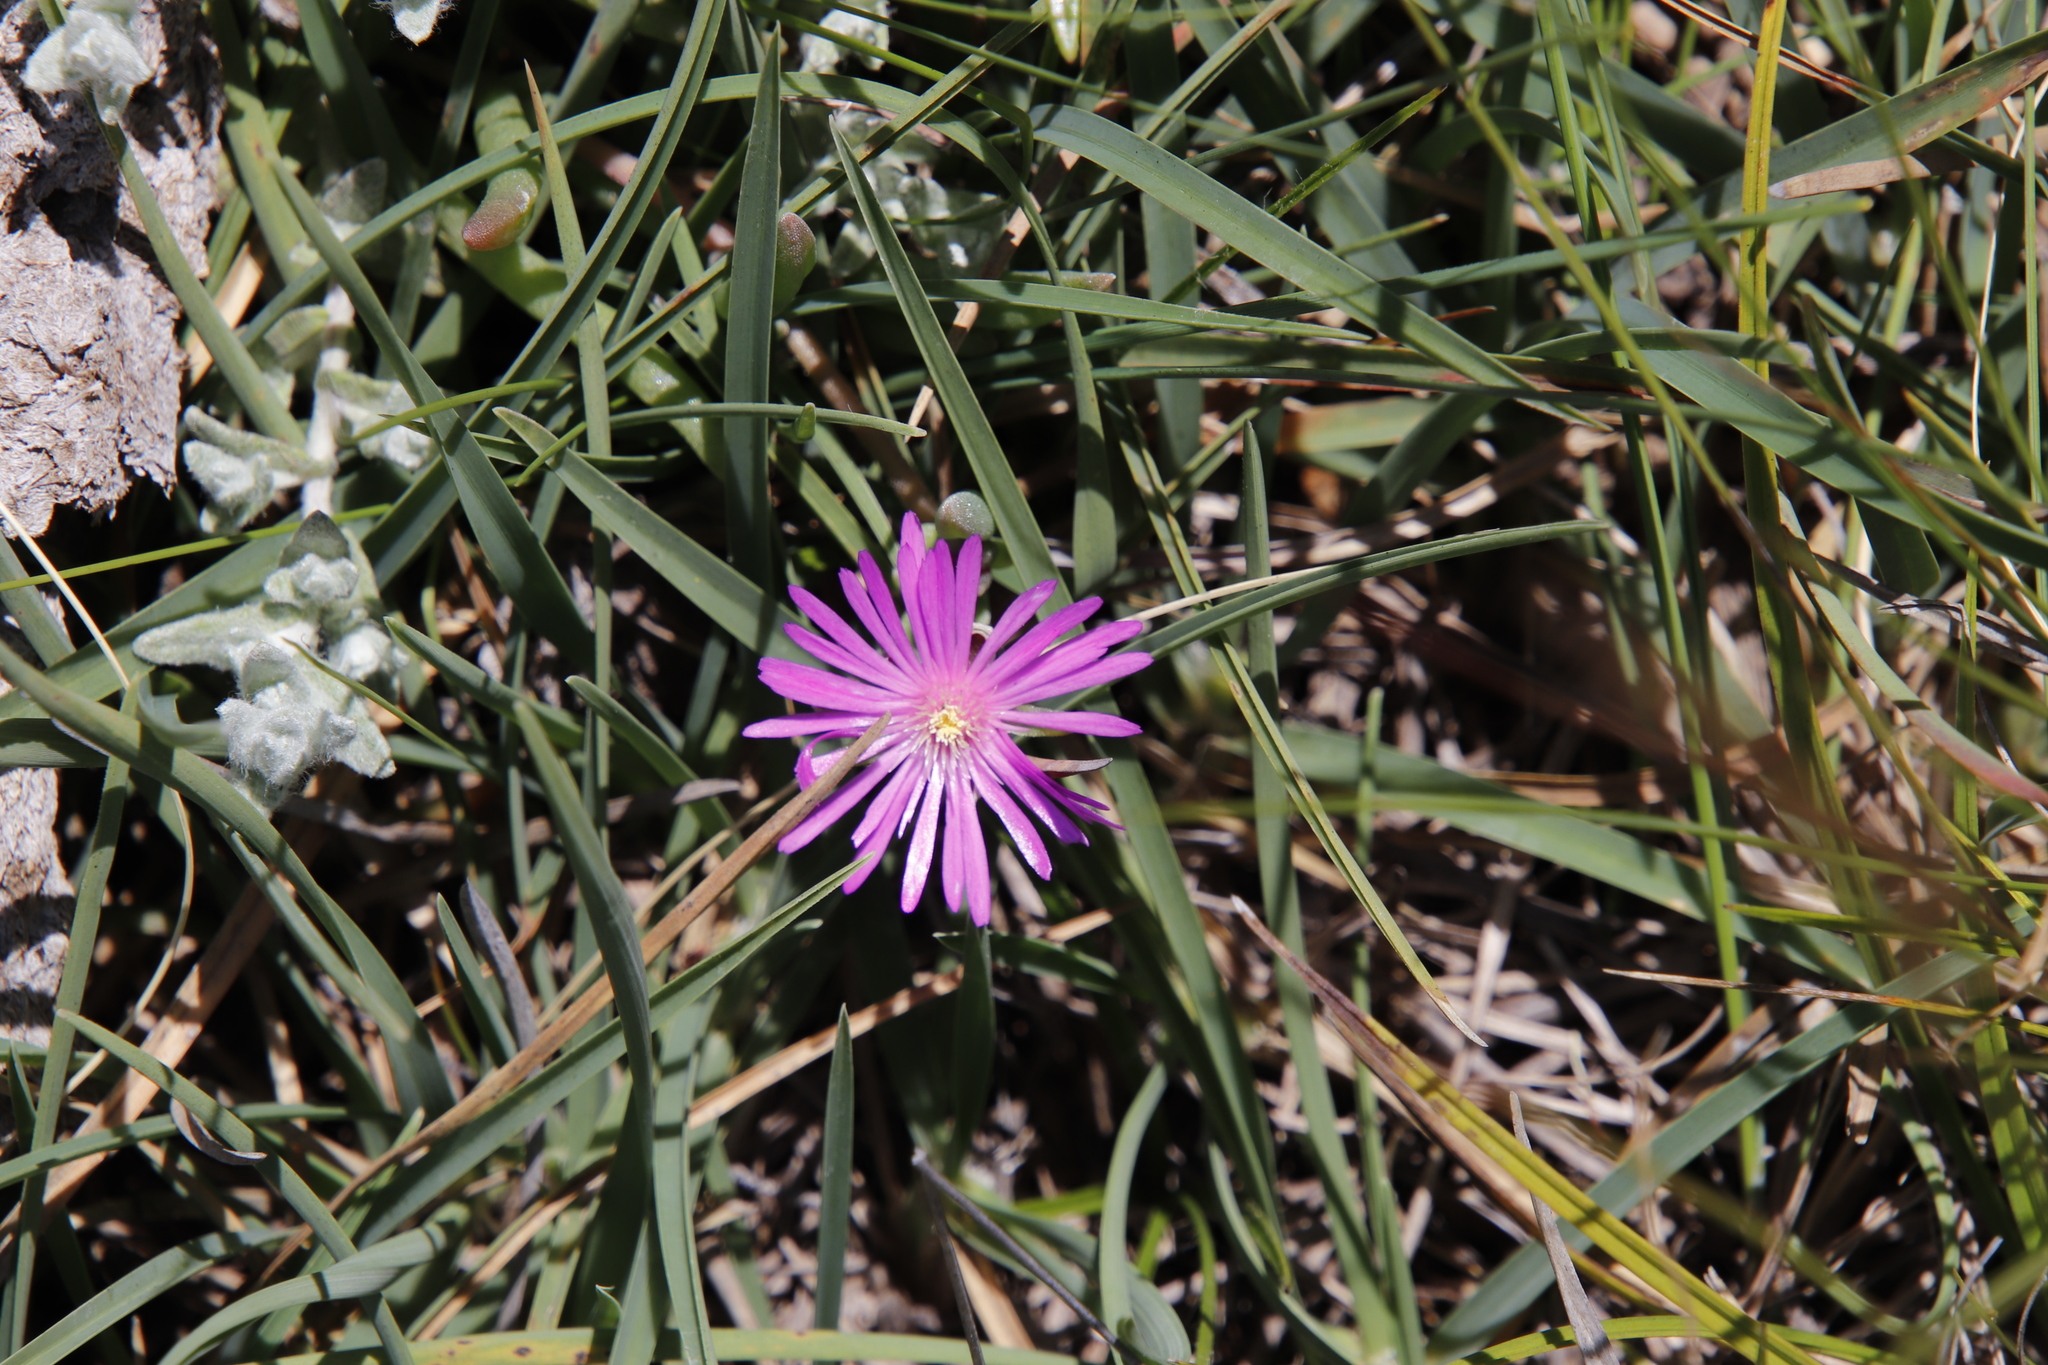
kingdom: Plantae
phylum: Tracheophyta
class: Magnoliopsida
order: Caryophyllales
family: Aizoaceae
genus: Delosperma
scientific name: Delosperma basuticum
